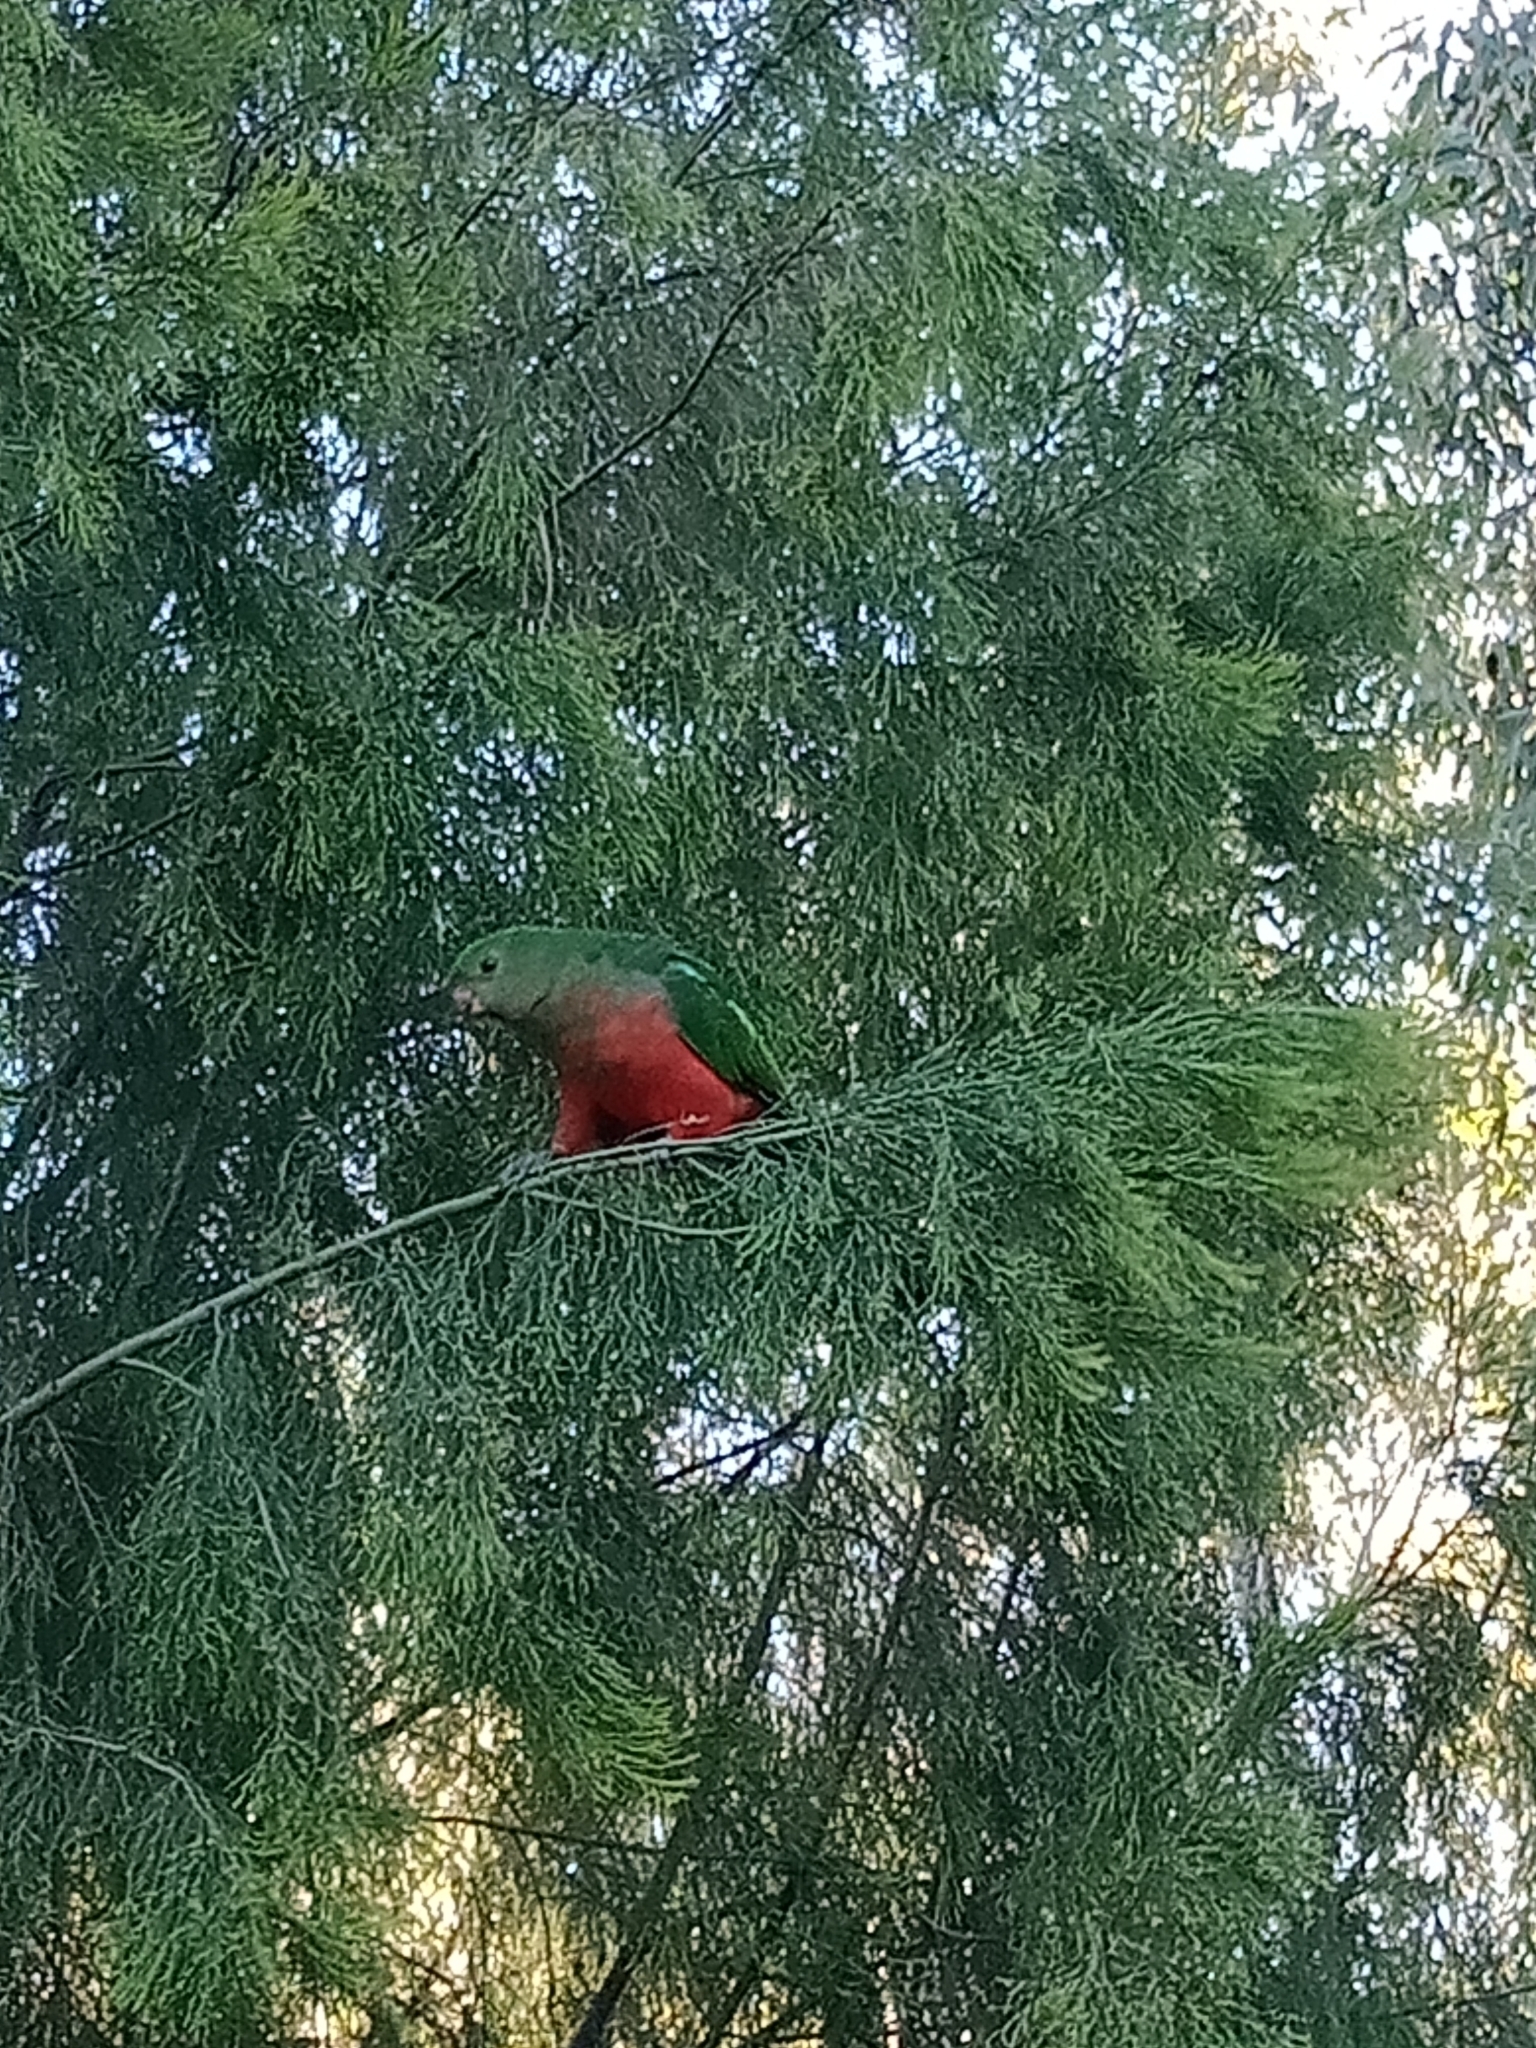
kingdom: Animalia
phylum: Chordata
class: Aves
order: Psittaciformes
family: Psittacidae
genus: Alisterus
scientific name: Alisterus scapularis
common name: Australian king parrot
